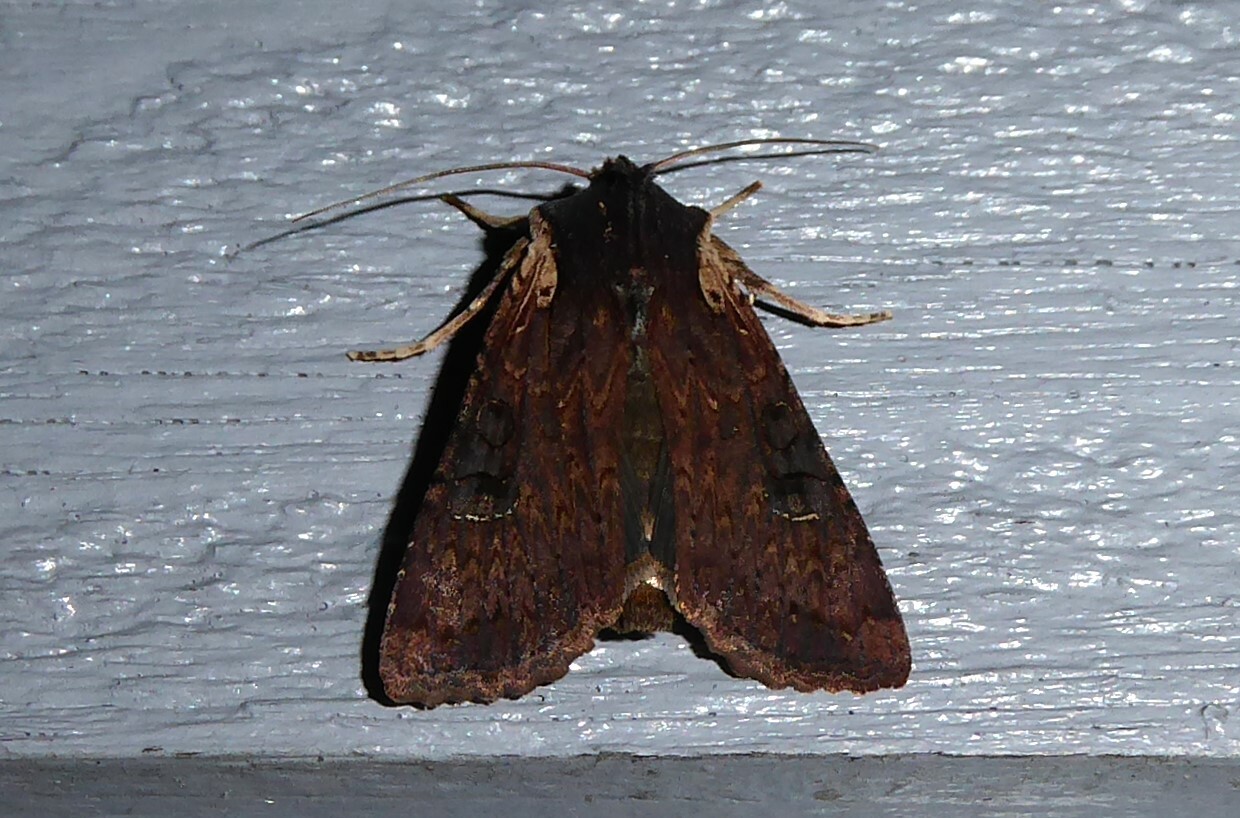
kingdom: Animalia
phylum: Arthropoda
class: Insecta
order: Lepidoptera
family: Noctuidae
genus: Ichneutica
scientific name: Ichneutica omoplaca
